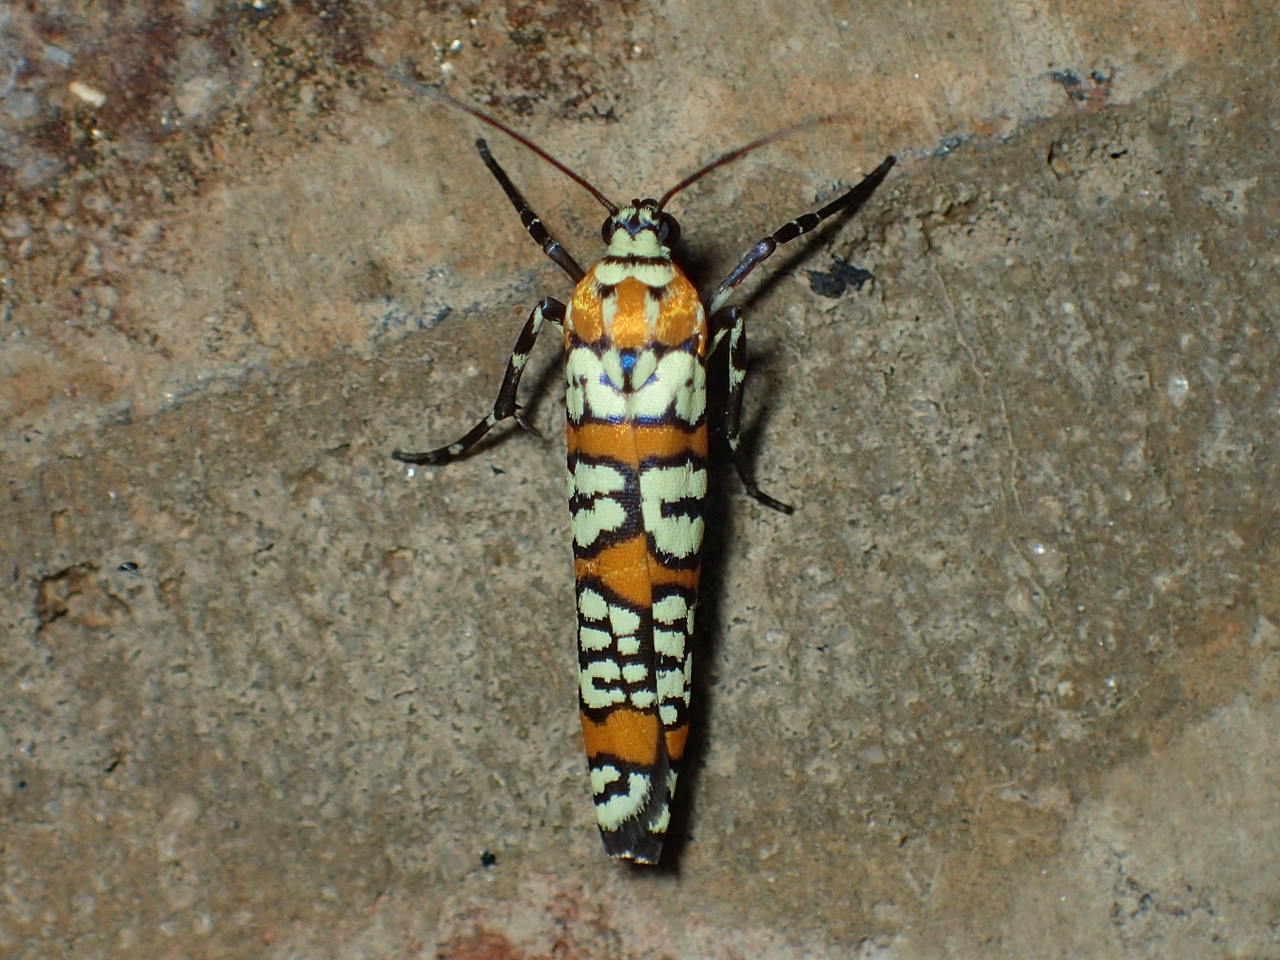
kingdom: Animalia
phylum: Arthropoda
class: Insecta
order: Lepidoptera
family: Attevidae
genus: Atteva
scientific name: Atteva punctella
